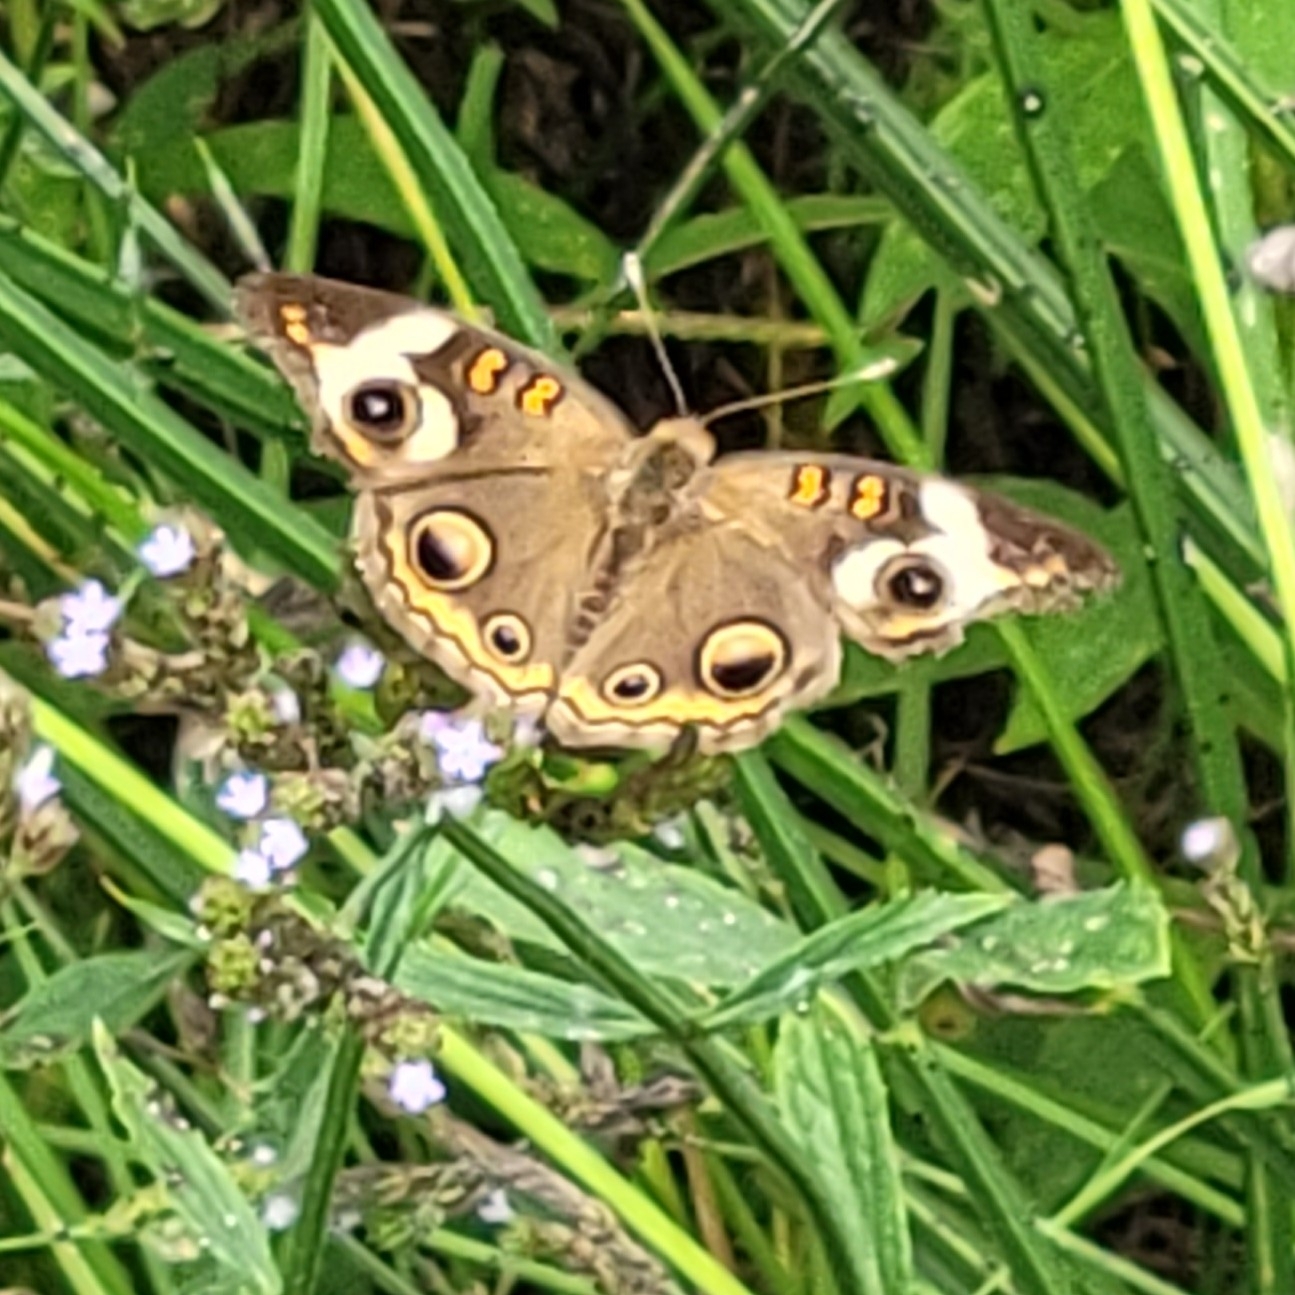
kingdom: Animalia
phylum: Arthropoda
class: Insecta
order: Lepidoptera
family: Nymphalidae
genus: Junonia
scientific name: Junonia coenia
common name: Common buckeye
